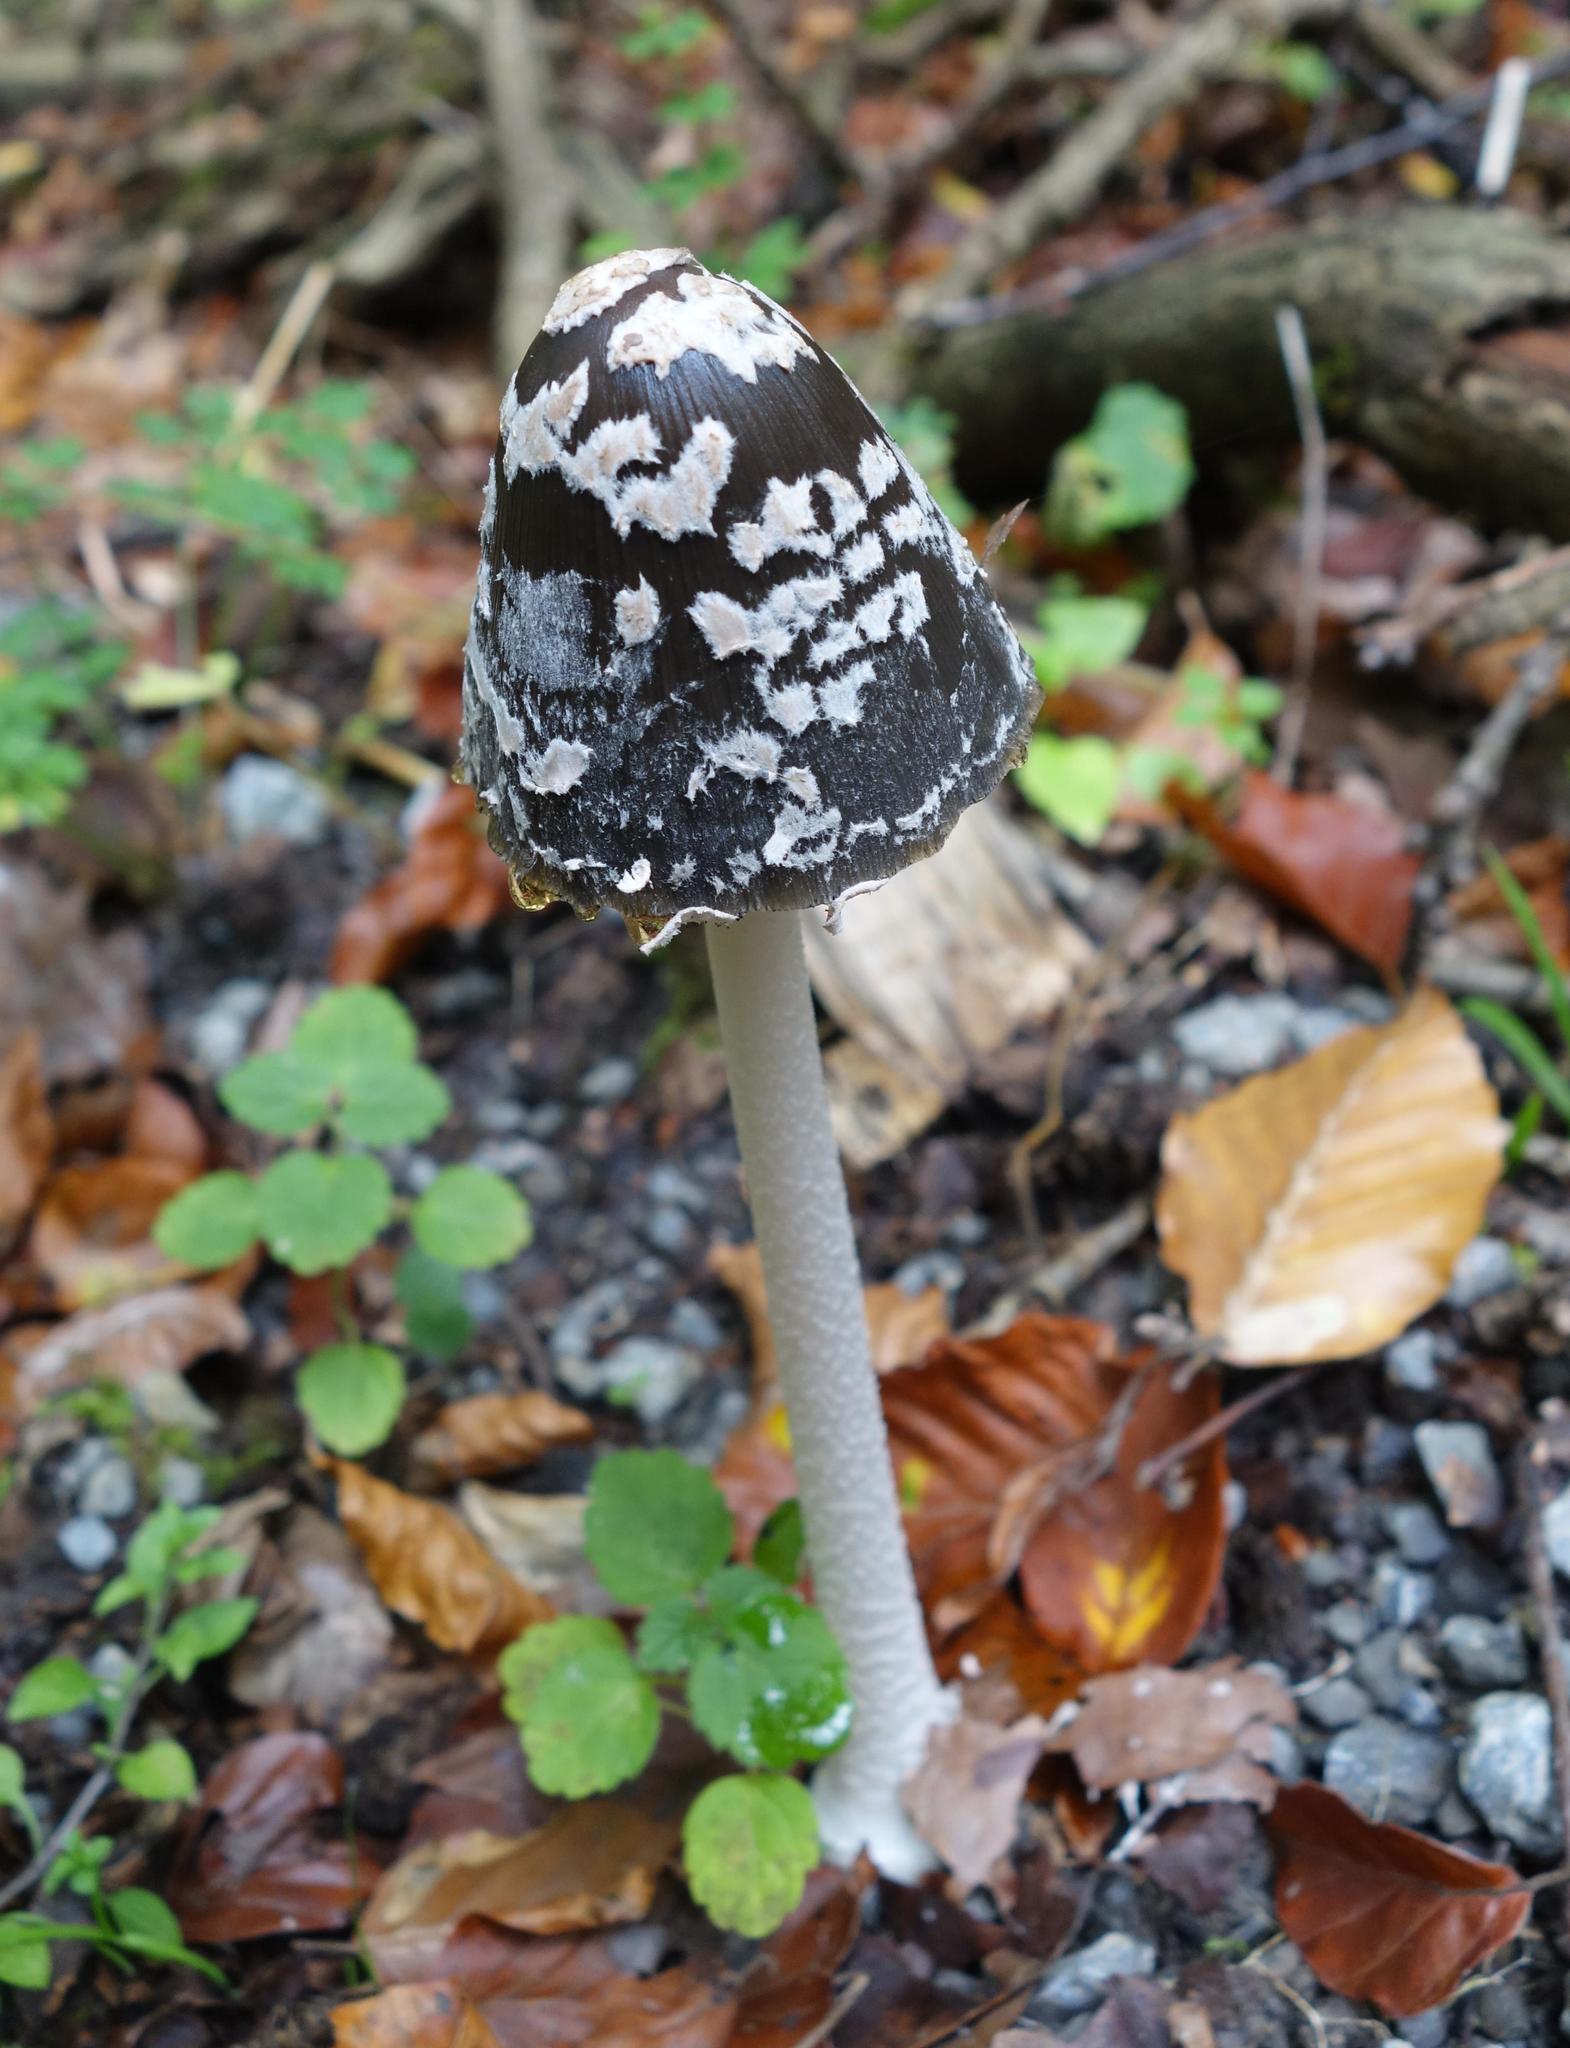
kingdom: Fungi
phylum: Basidiomycota
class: Agaricomycetes
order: Agaricales
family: Psathyrellaceae
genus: Coprinopsis
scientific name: Coprinopsis picacea
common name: Magpie inkcap
